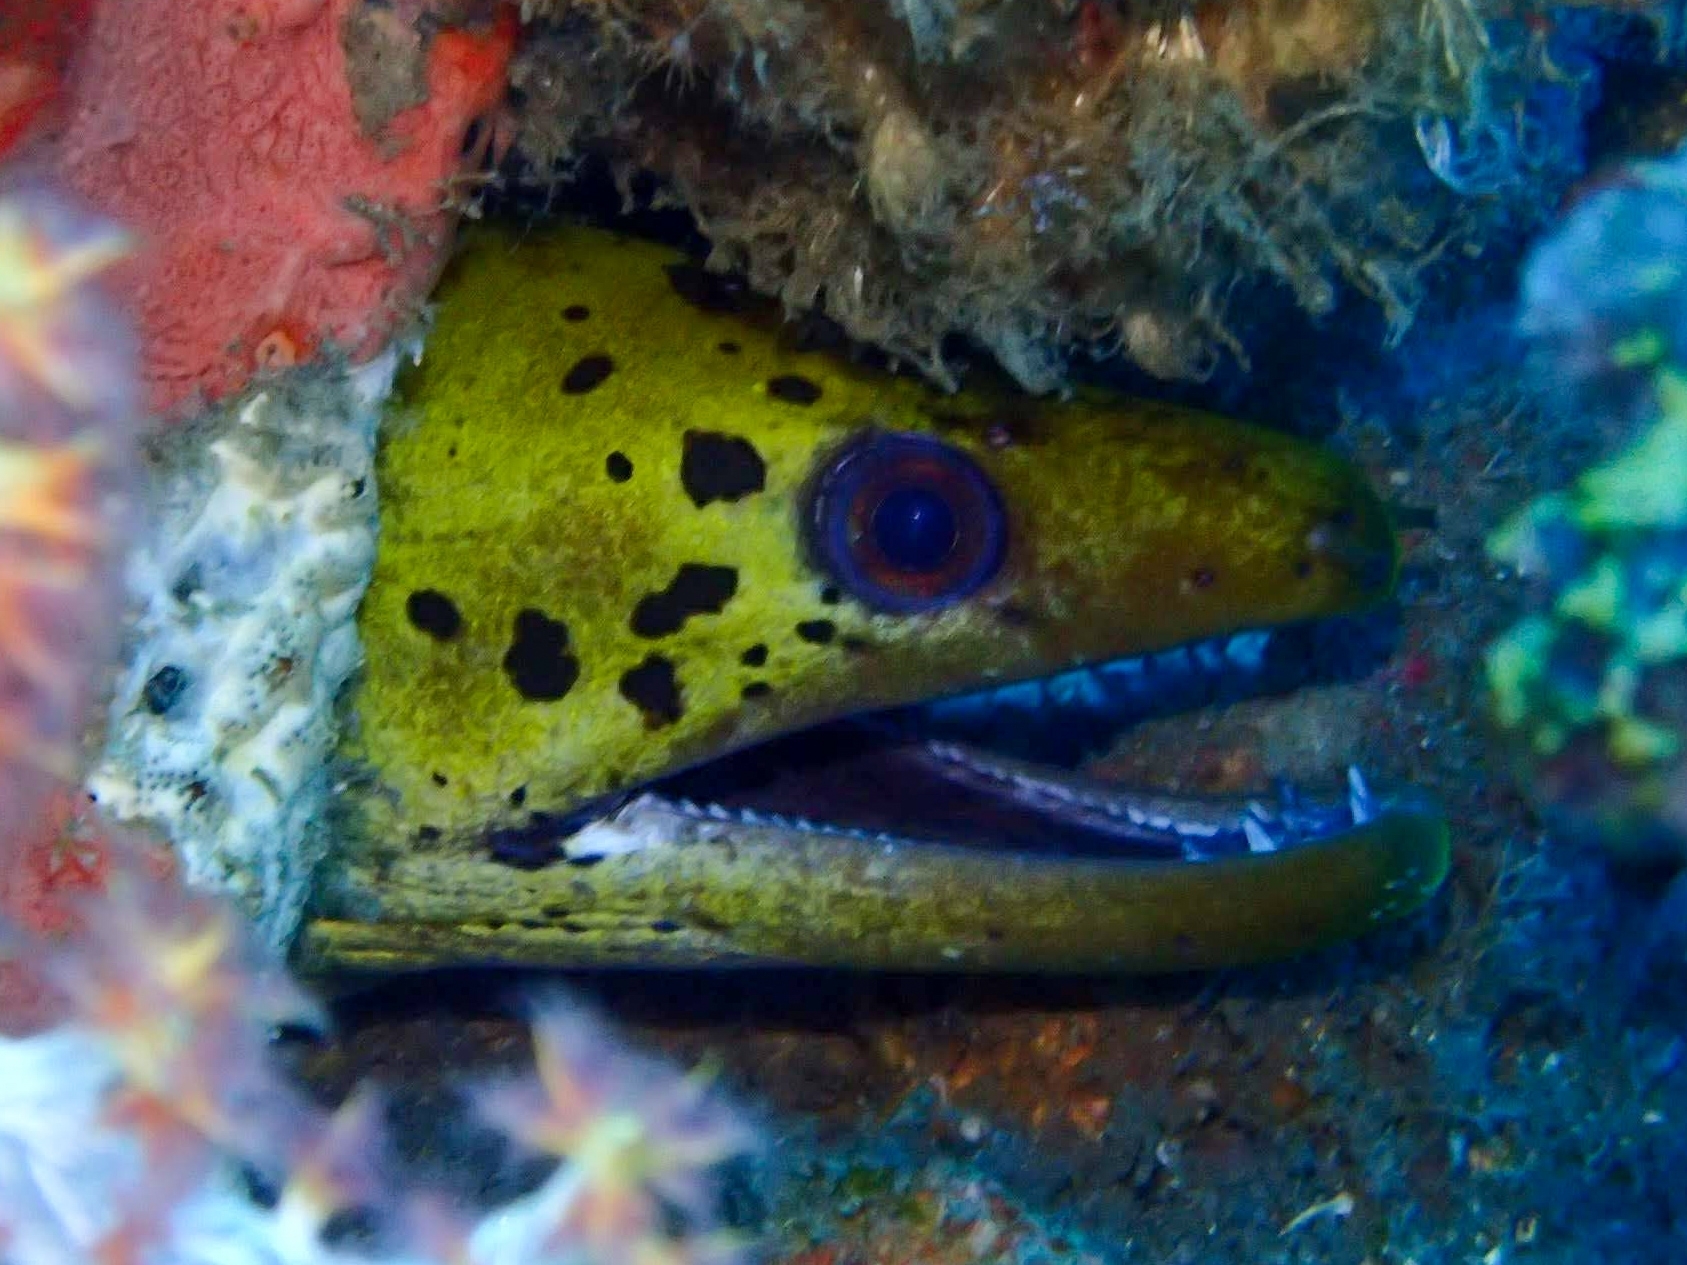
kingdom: Animalia
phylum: Chordata
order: Anguilliformes
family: Muraenidae
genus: Gymnothorax
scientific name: Gymnothorax fimbriatus
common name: Darkspotted moray
